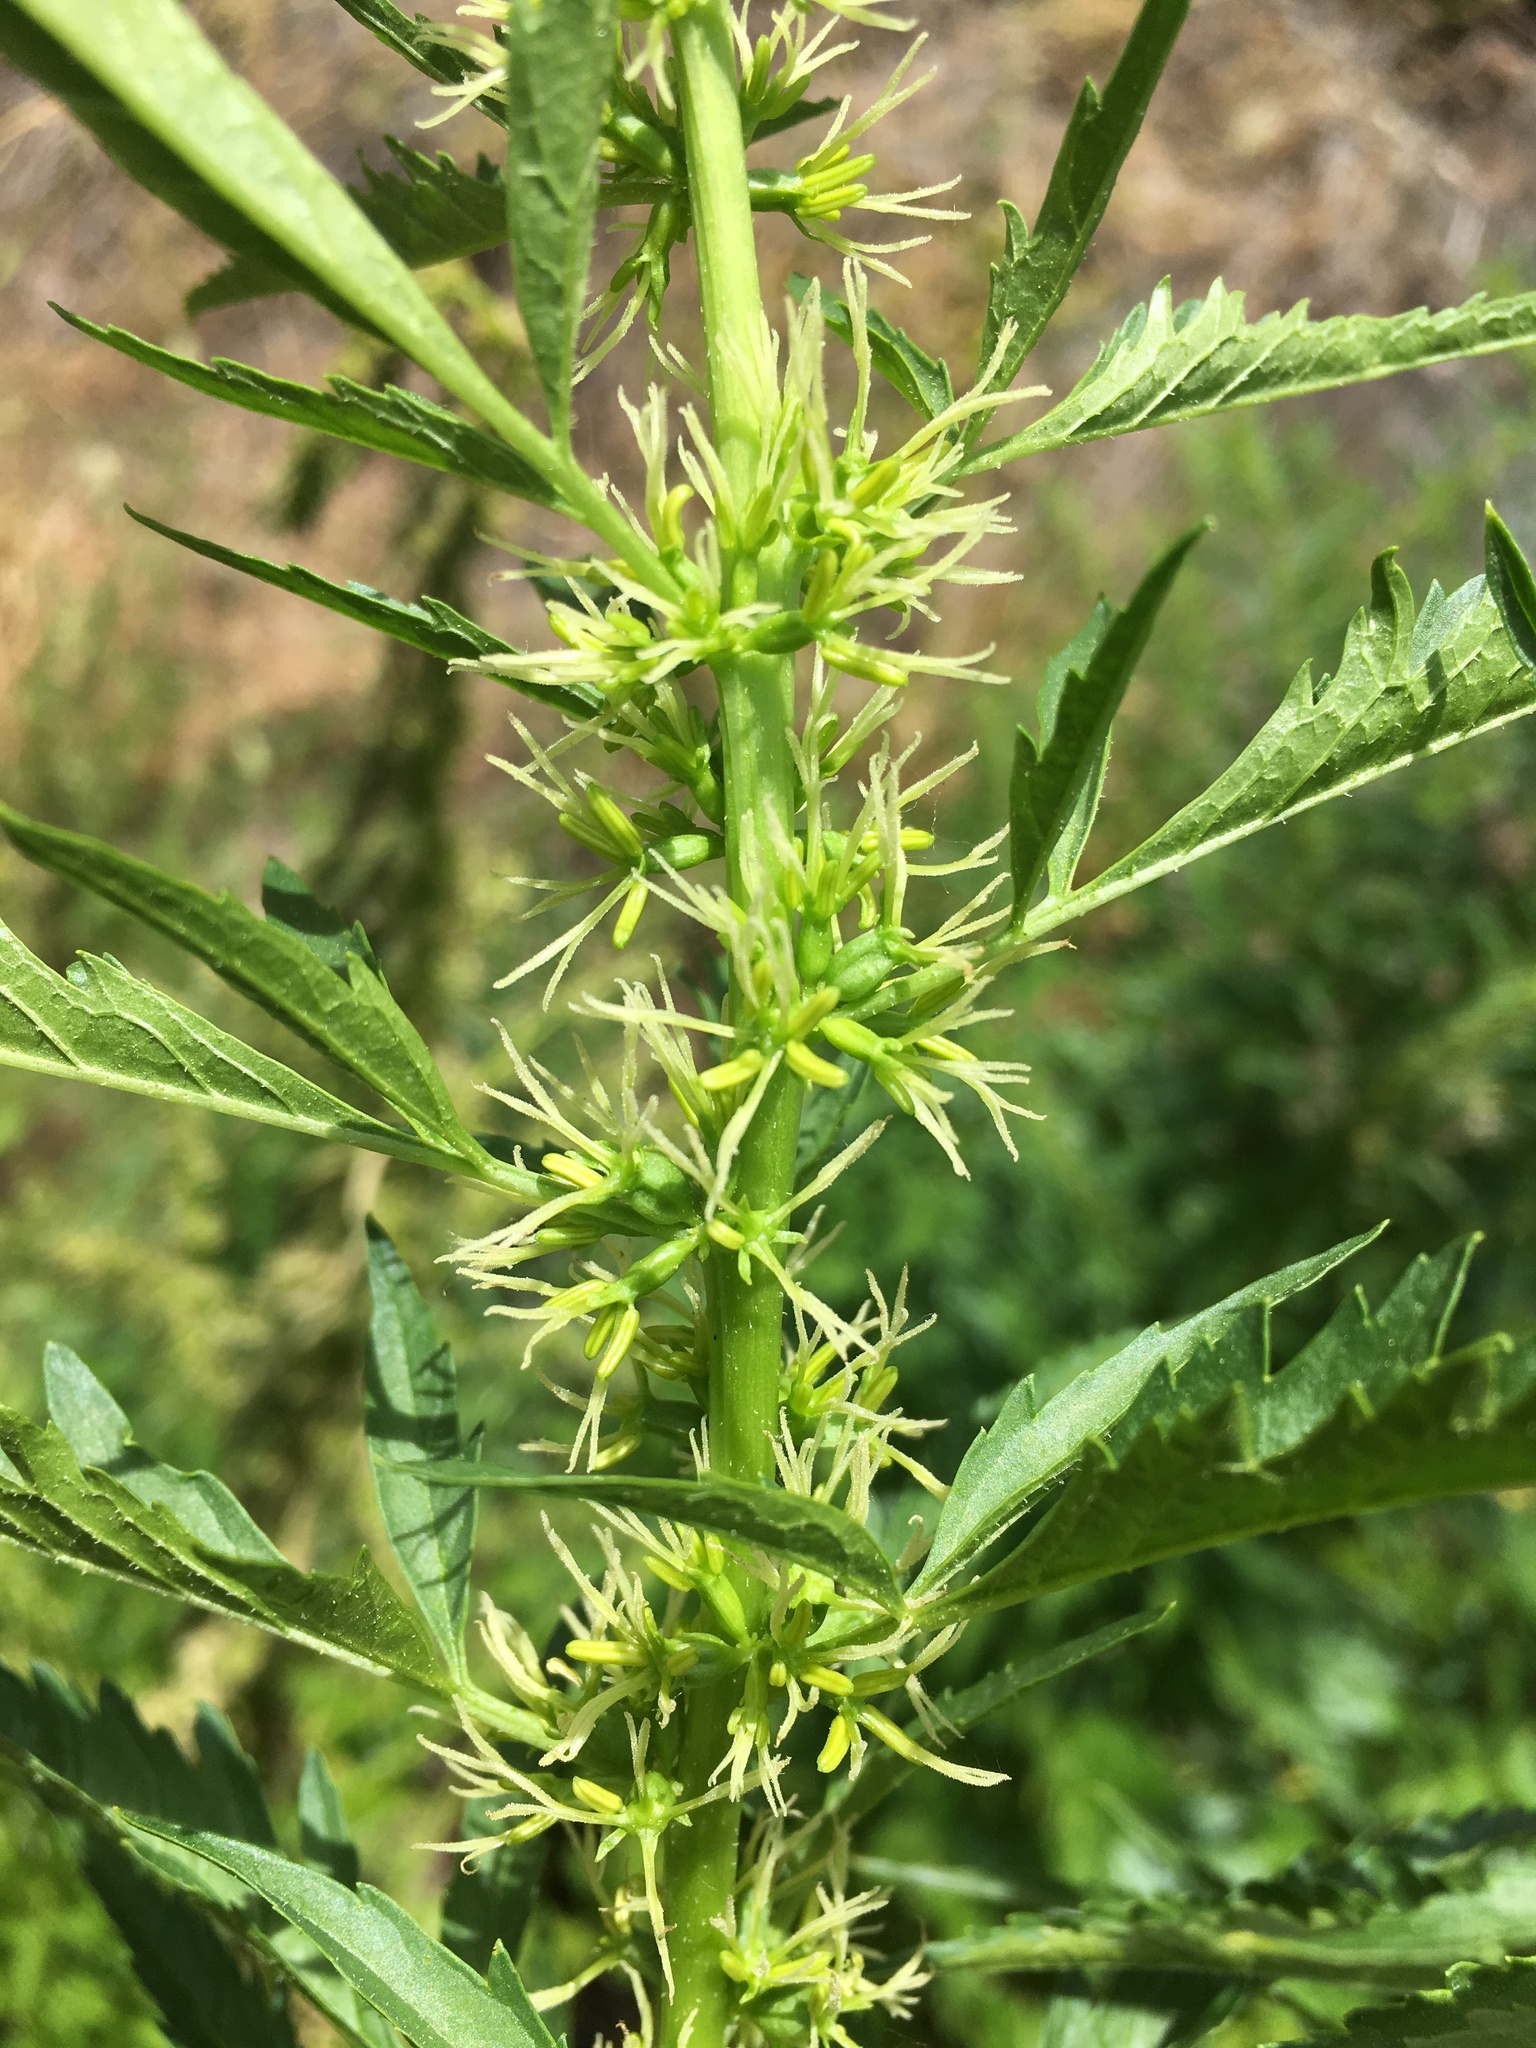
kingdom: Plantae
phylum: Tracheophyta
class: Magnoliopsida
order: Cucurbitales
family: Datiscaceae
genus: Datisca
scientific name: Datisca glomerata
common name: Durango-root
